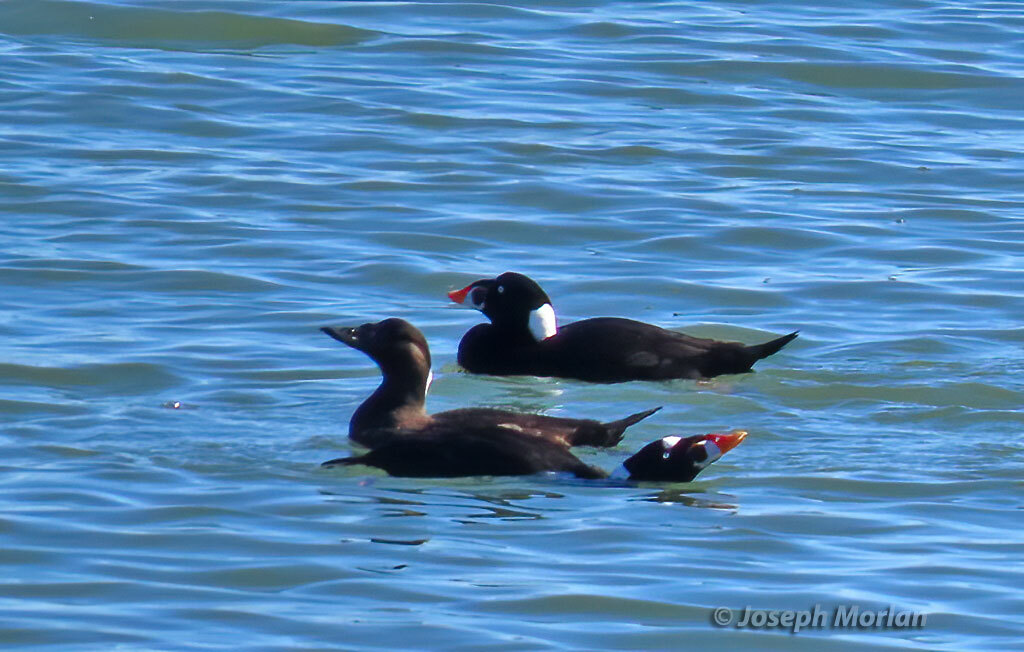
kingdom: Animalia
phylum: Chordata
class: Aves
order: Anseriformes
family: Anatidae
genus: Melanitta
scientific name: Melanitta perspicillata
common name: Surf scoter
